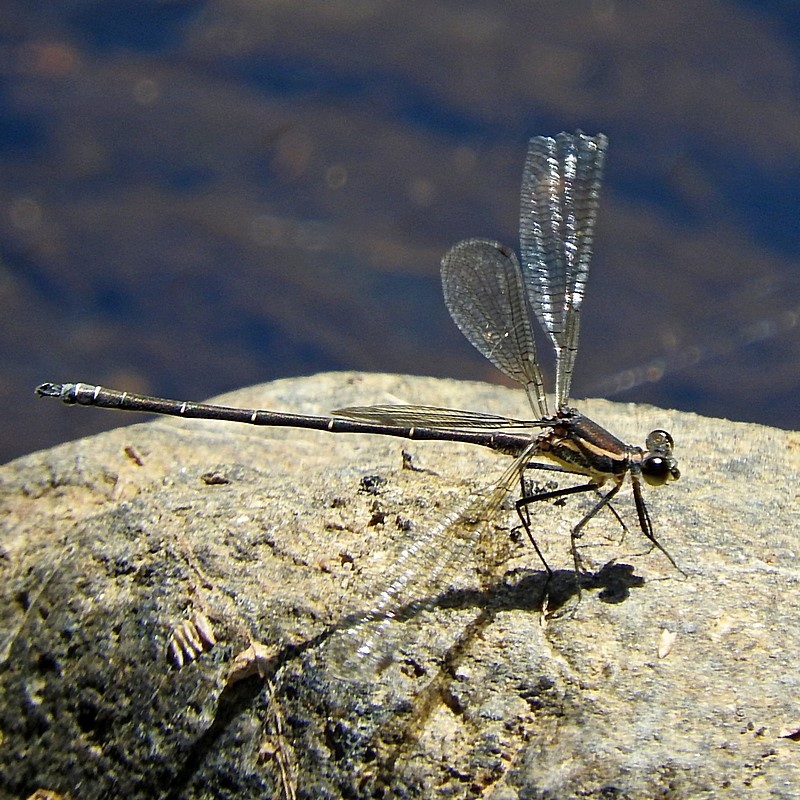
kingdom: Animalia
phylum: Arthropoda
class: Insecta
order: Odonata
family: Argiolestidae
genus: Austroargiolestes
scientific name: Austroargiolestes icteromelas
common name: Common flatwing
